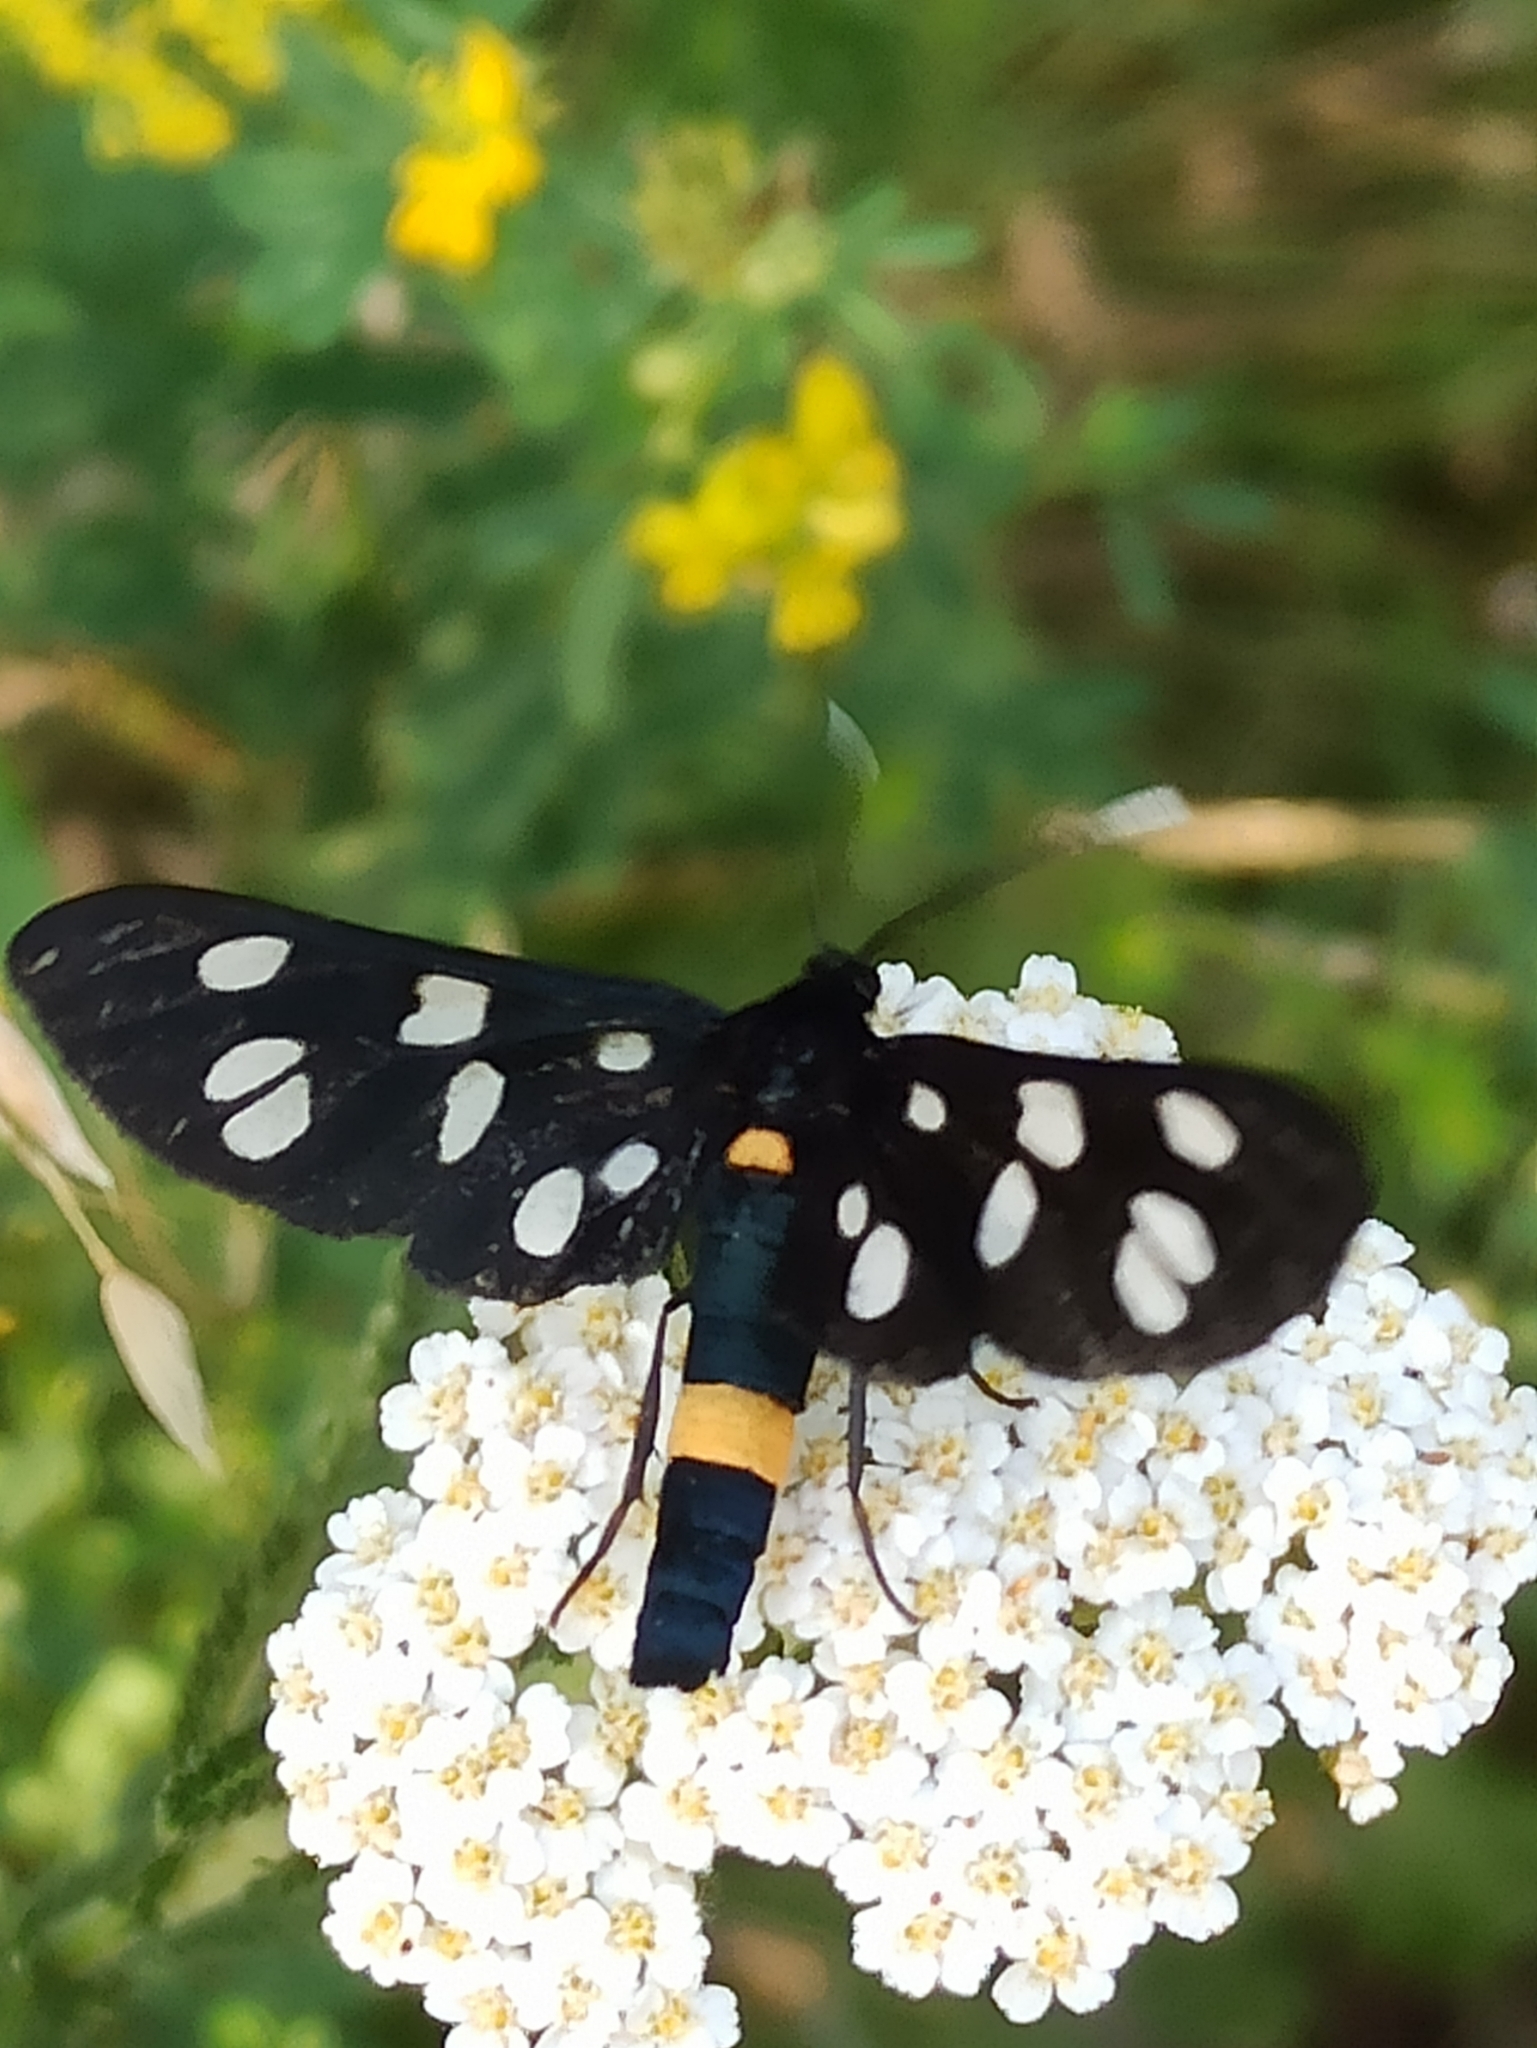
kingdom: Animalia
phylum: Arthropoda
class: Insecta
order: Lepidoptera
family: Erebidae
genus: Amata
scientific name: Amata phegea
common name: Nine-spotted
